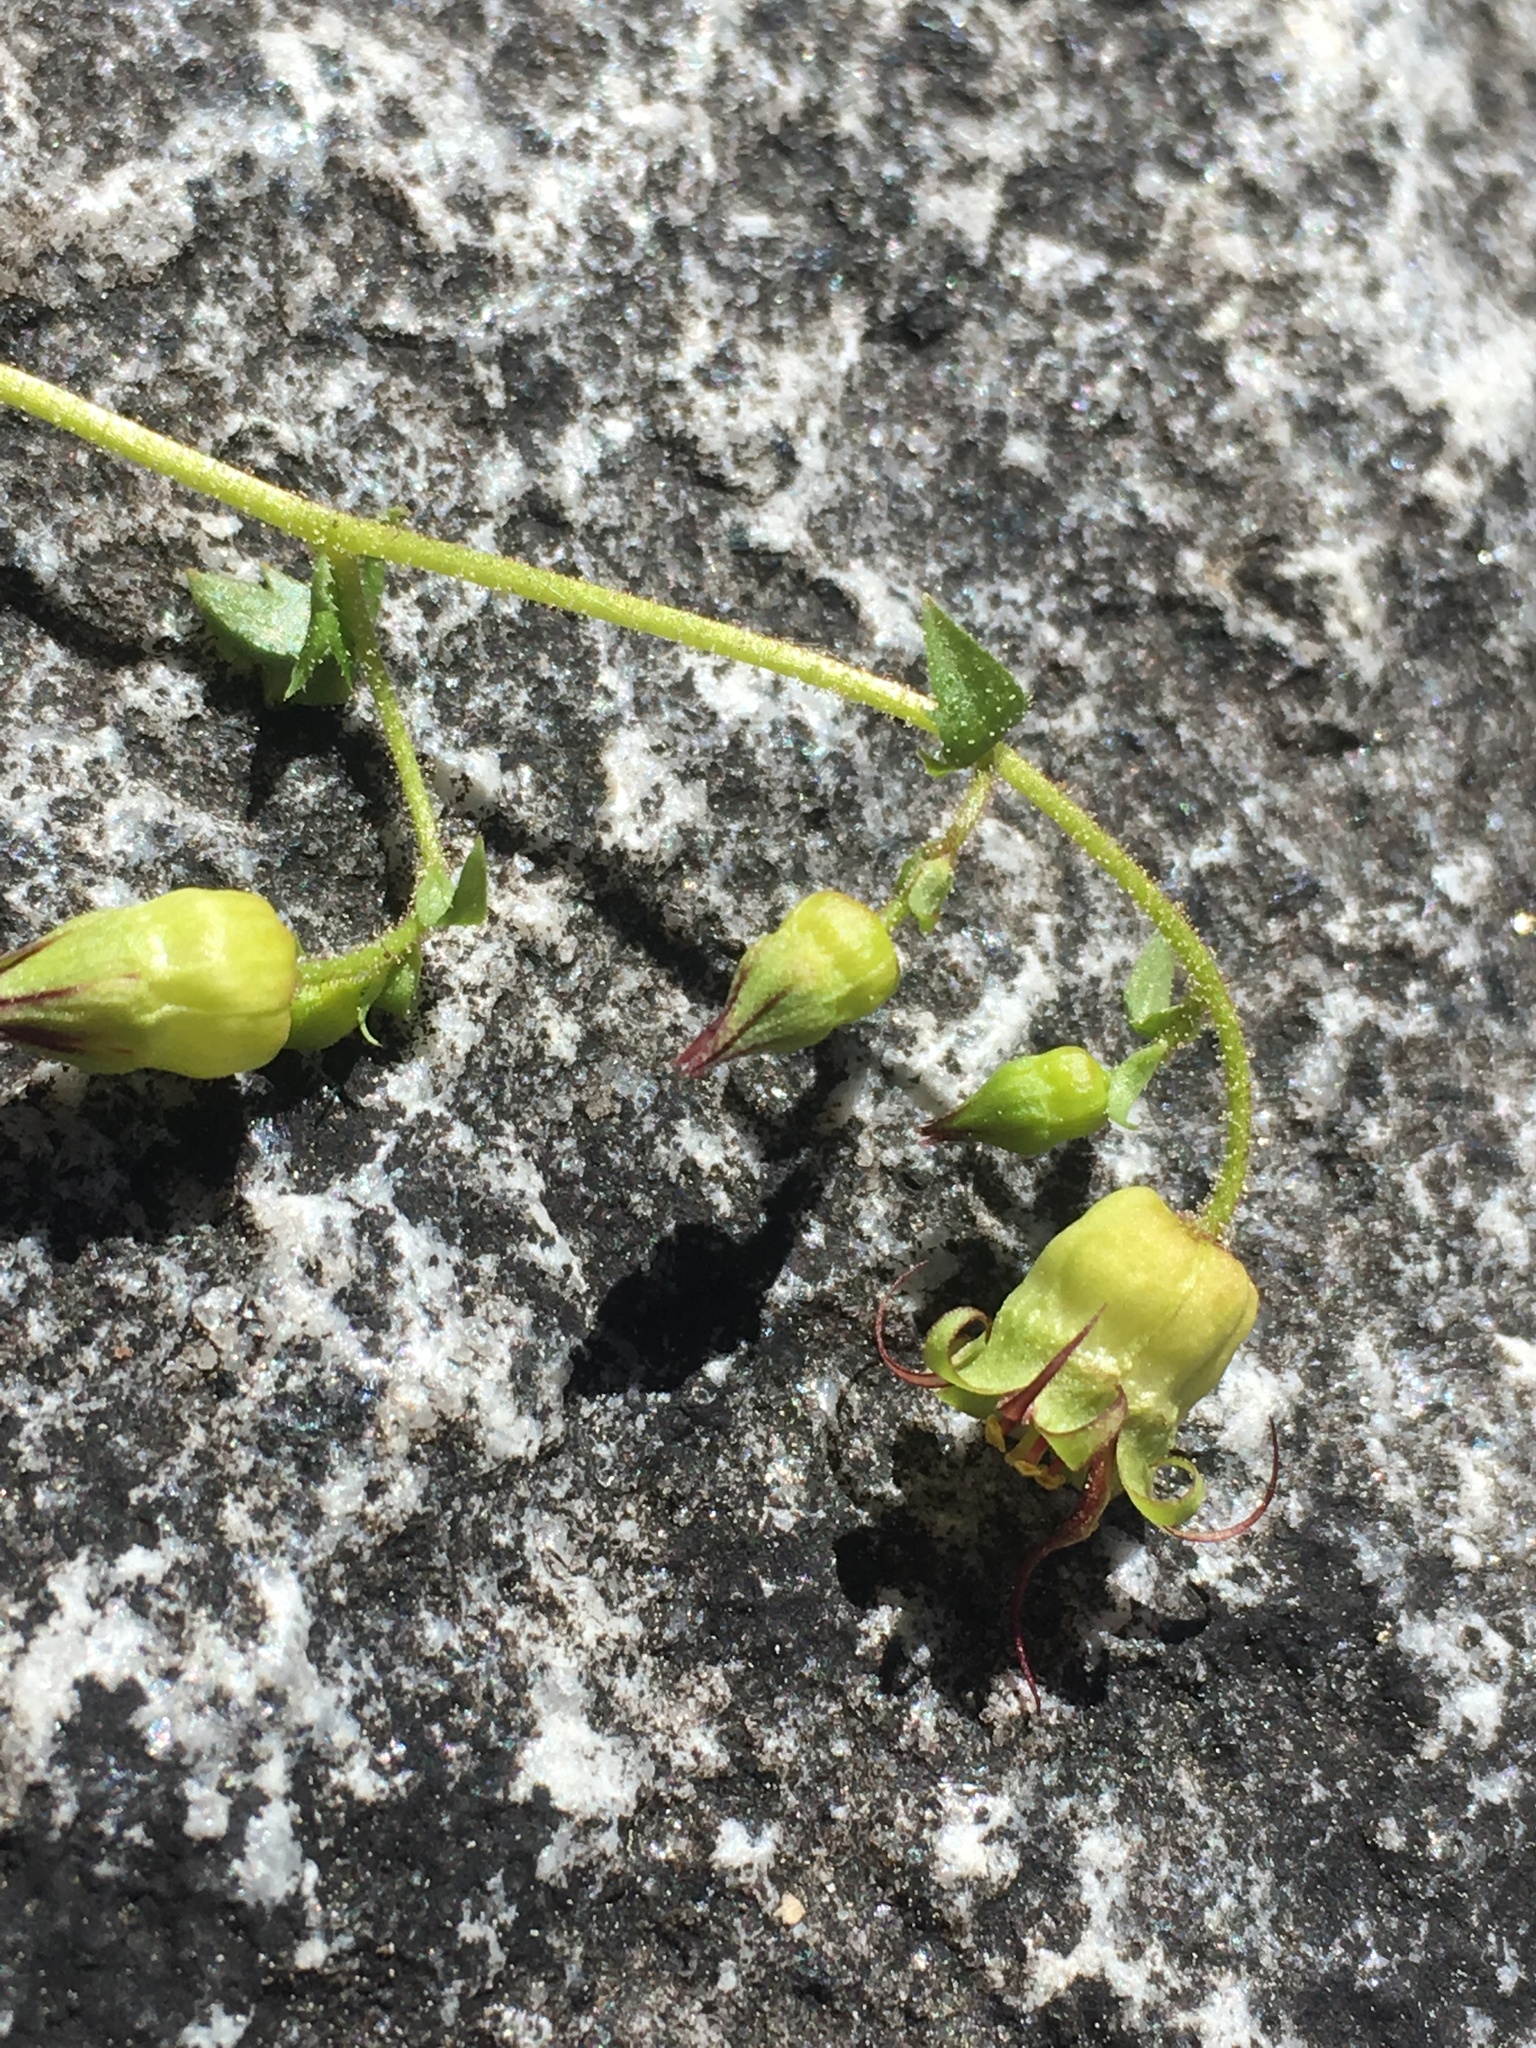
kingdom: Plantae
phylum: Tracheophyta
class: Magnoliopsida
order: Saxifragales
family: Saxifragaceae
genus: Bolandra
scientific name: Bolandra californica
